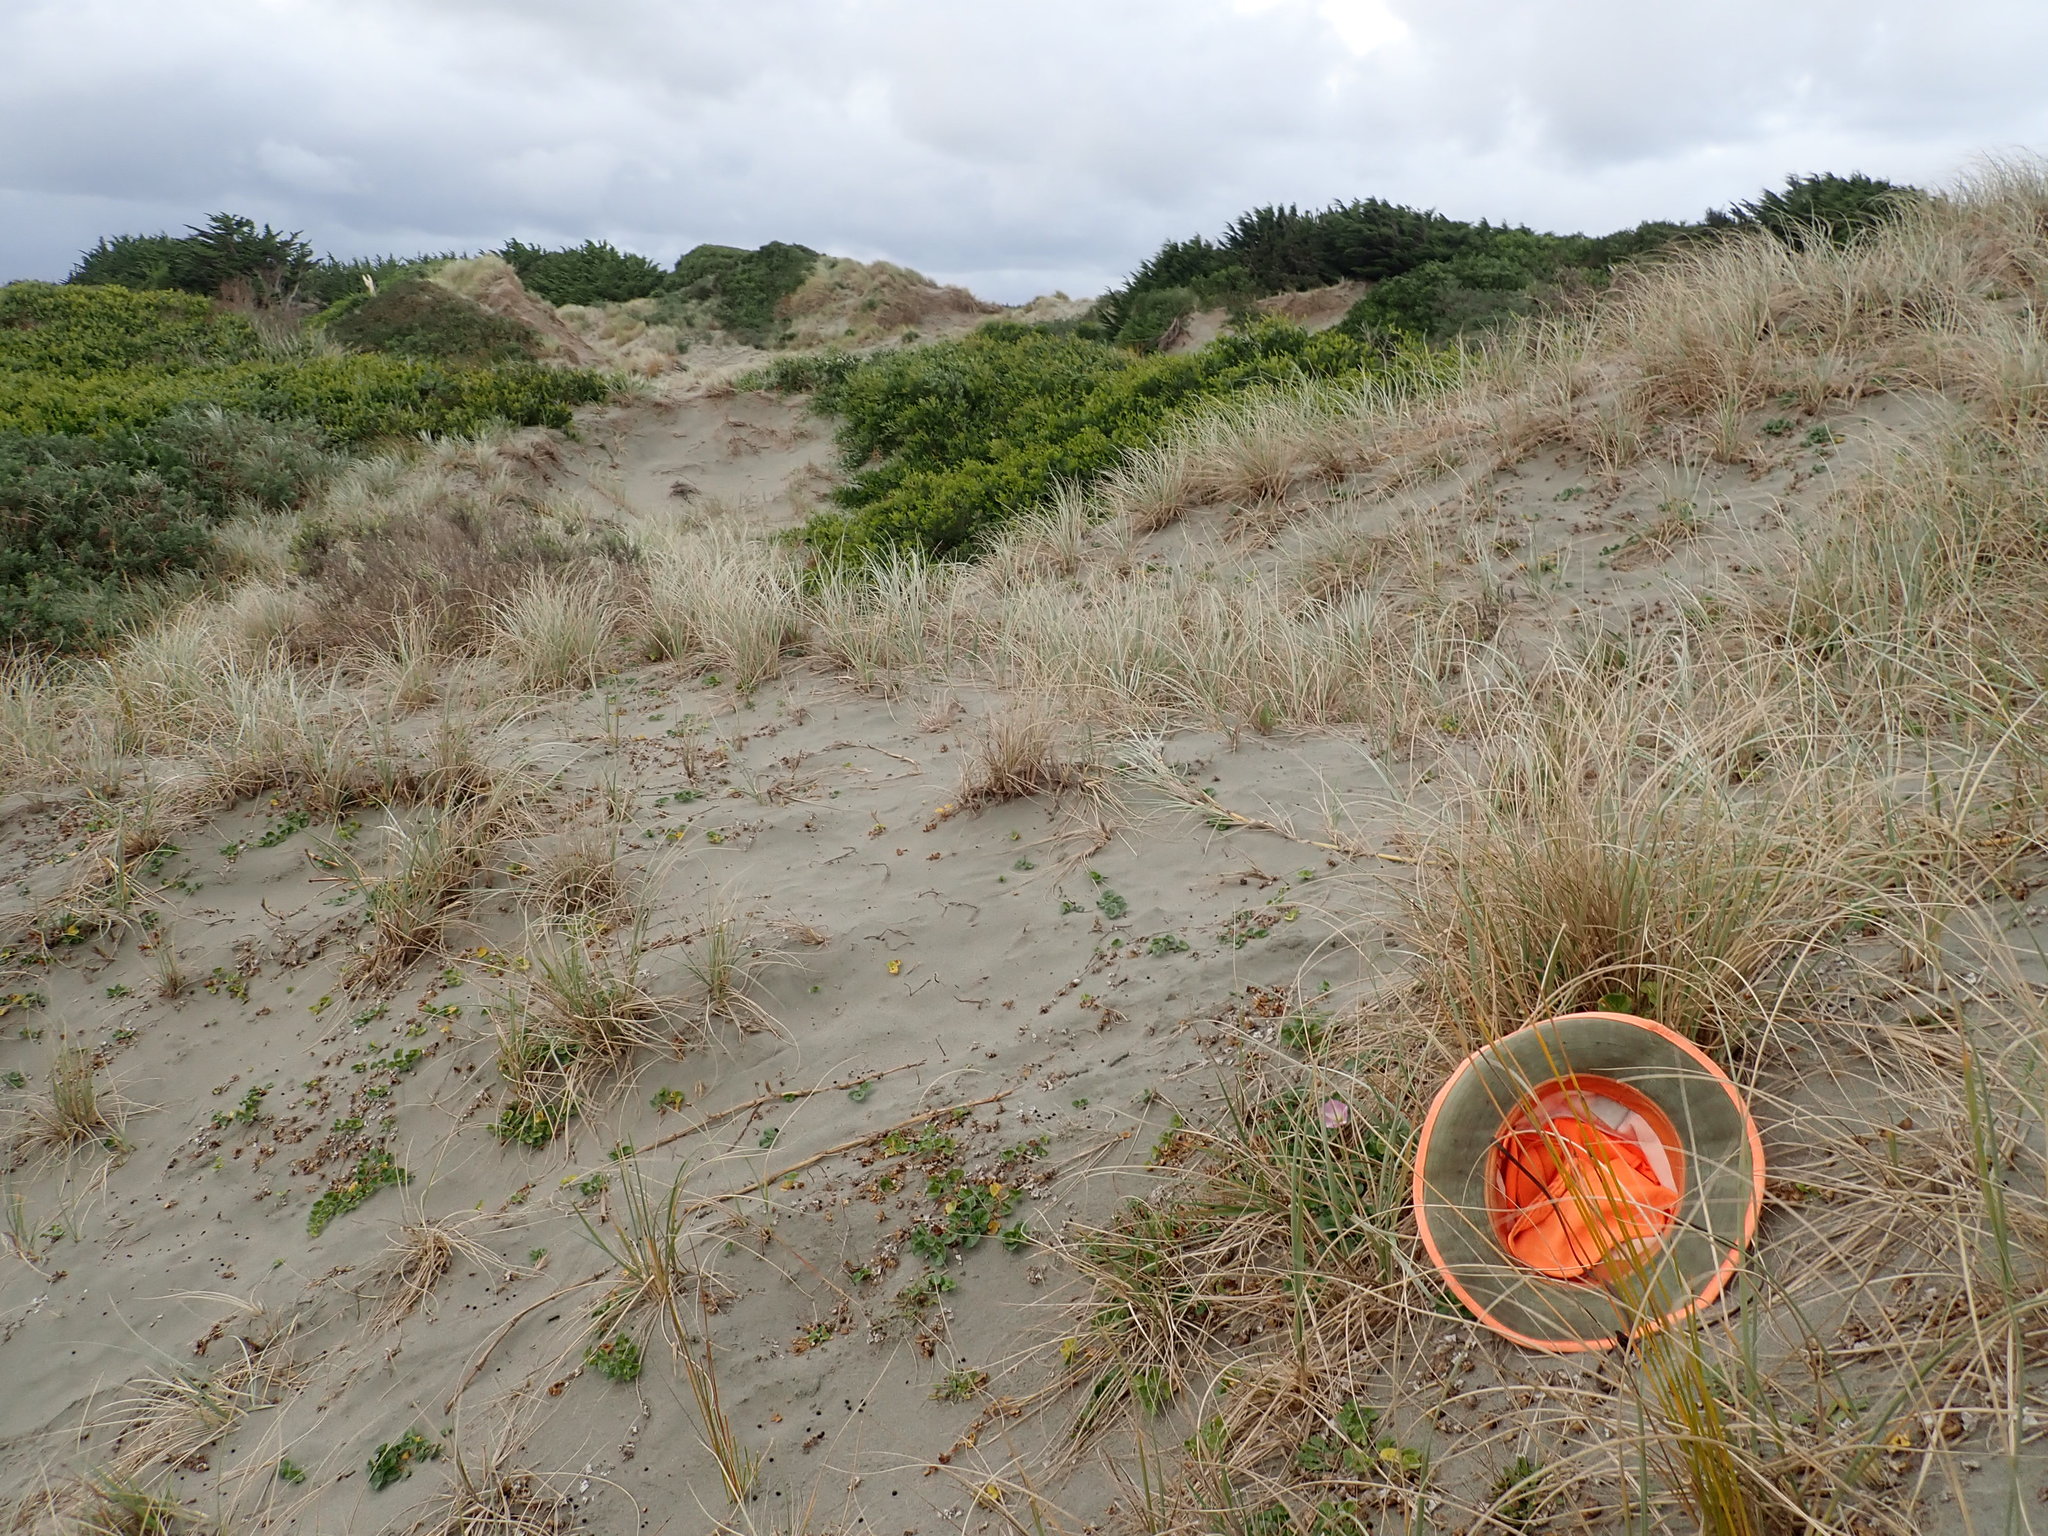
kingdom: Plantae
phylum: Tracheophyta
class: Magnoliopsida
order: Solanales
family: Convolvulaceae
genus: Calystegia
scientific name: Calystegia soldanella
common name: Sea bindweed
